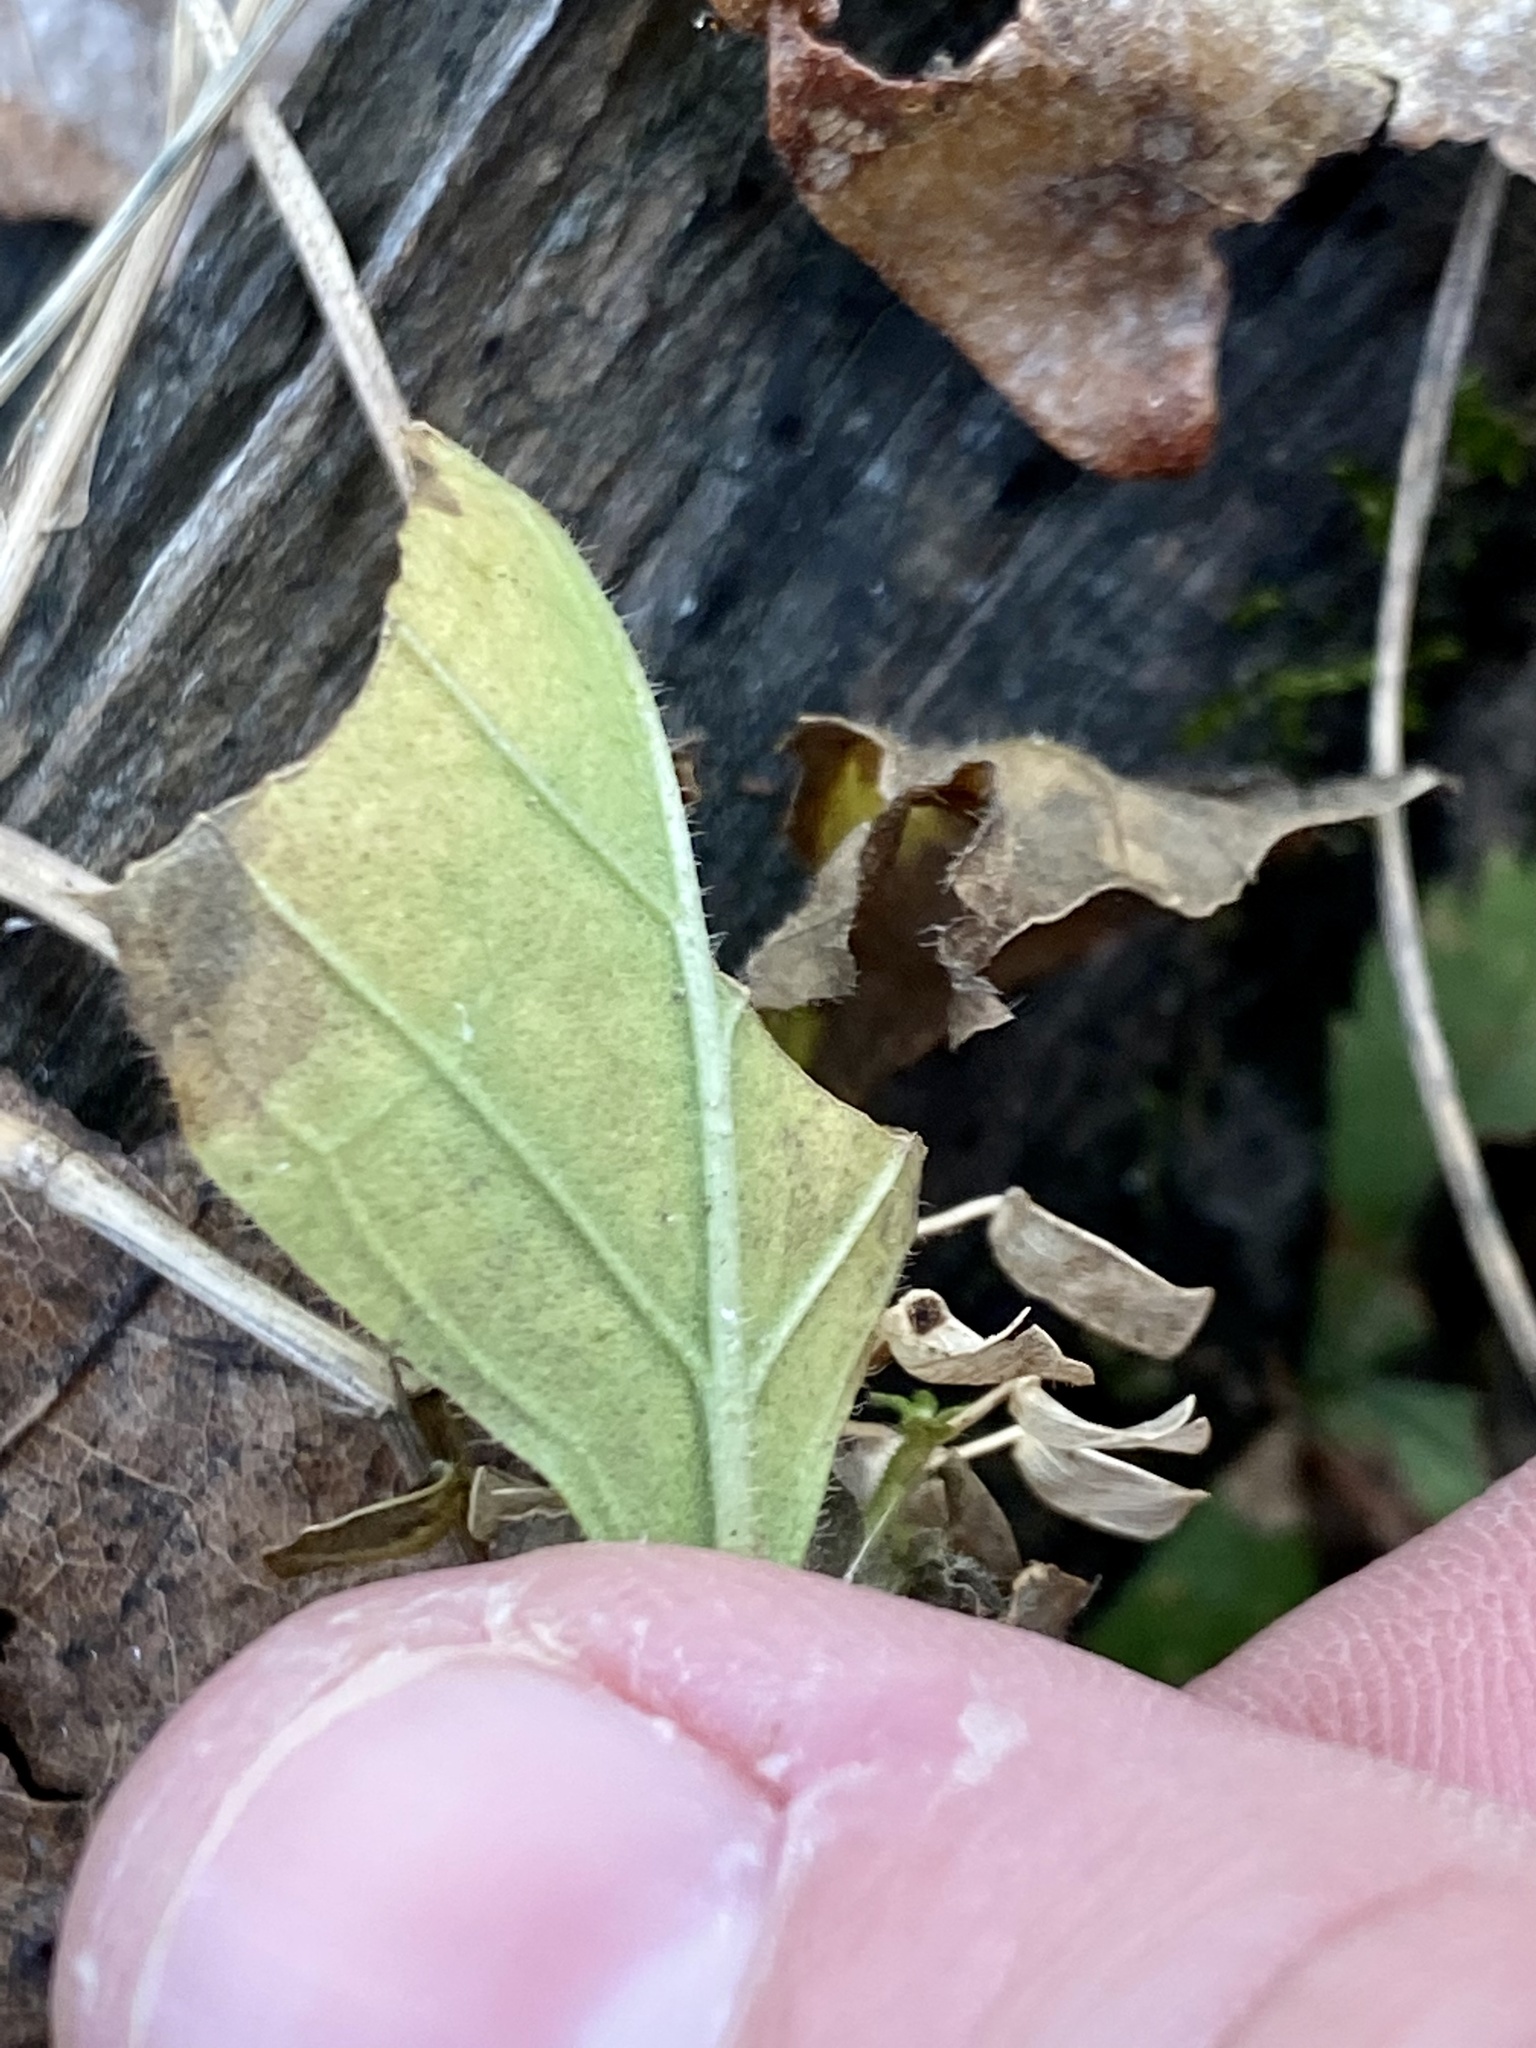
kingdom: Plantae
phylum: Tracheophyta
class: Magnoliopsida
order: Lamiales
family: Lamiaceae
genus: Scutellaria
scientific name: Scutellaria elliptica
